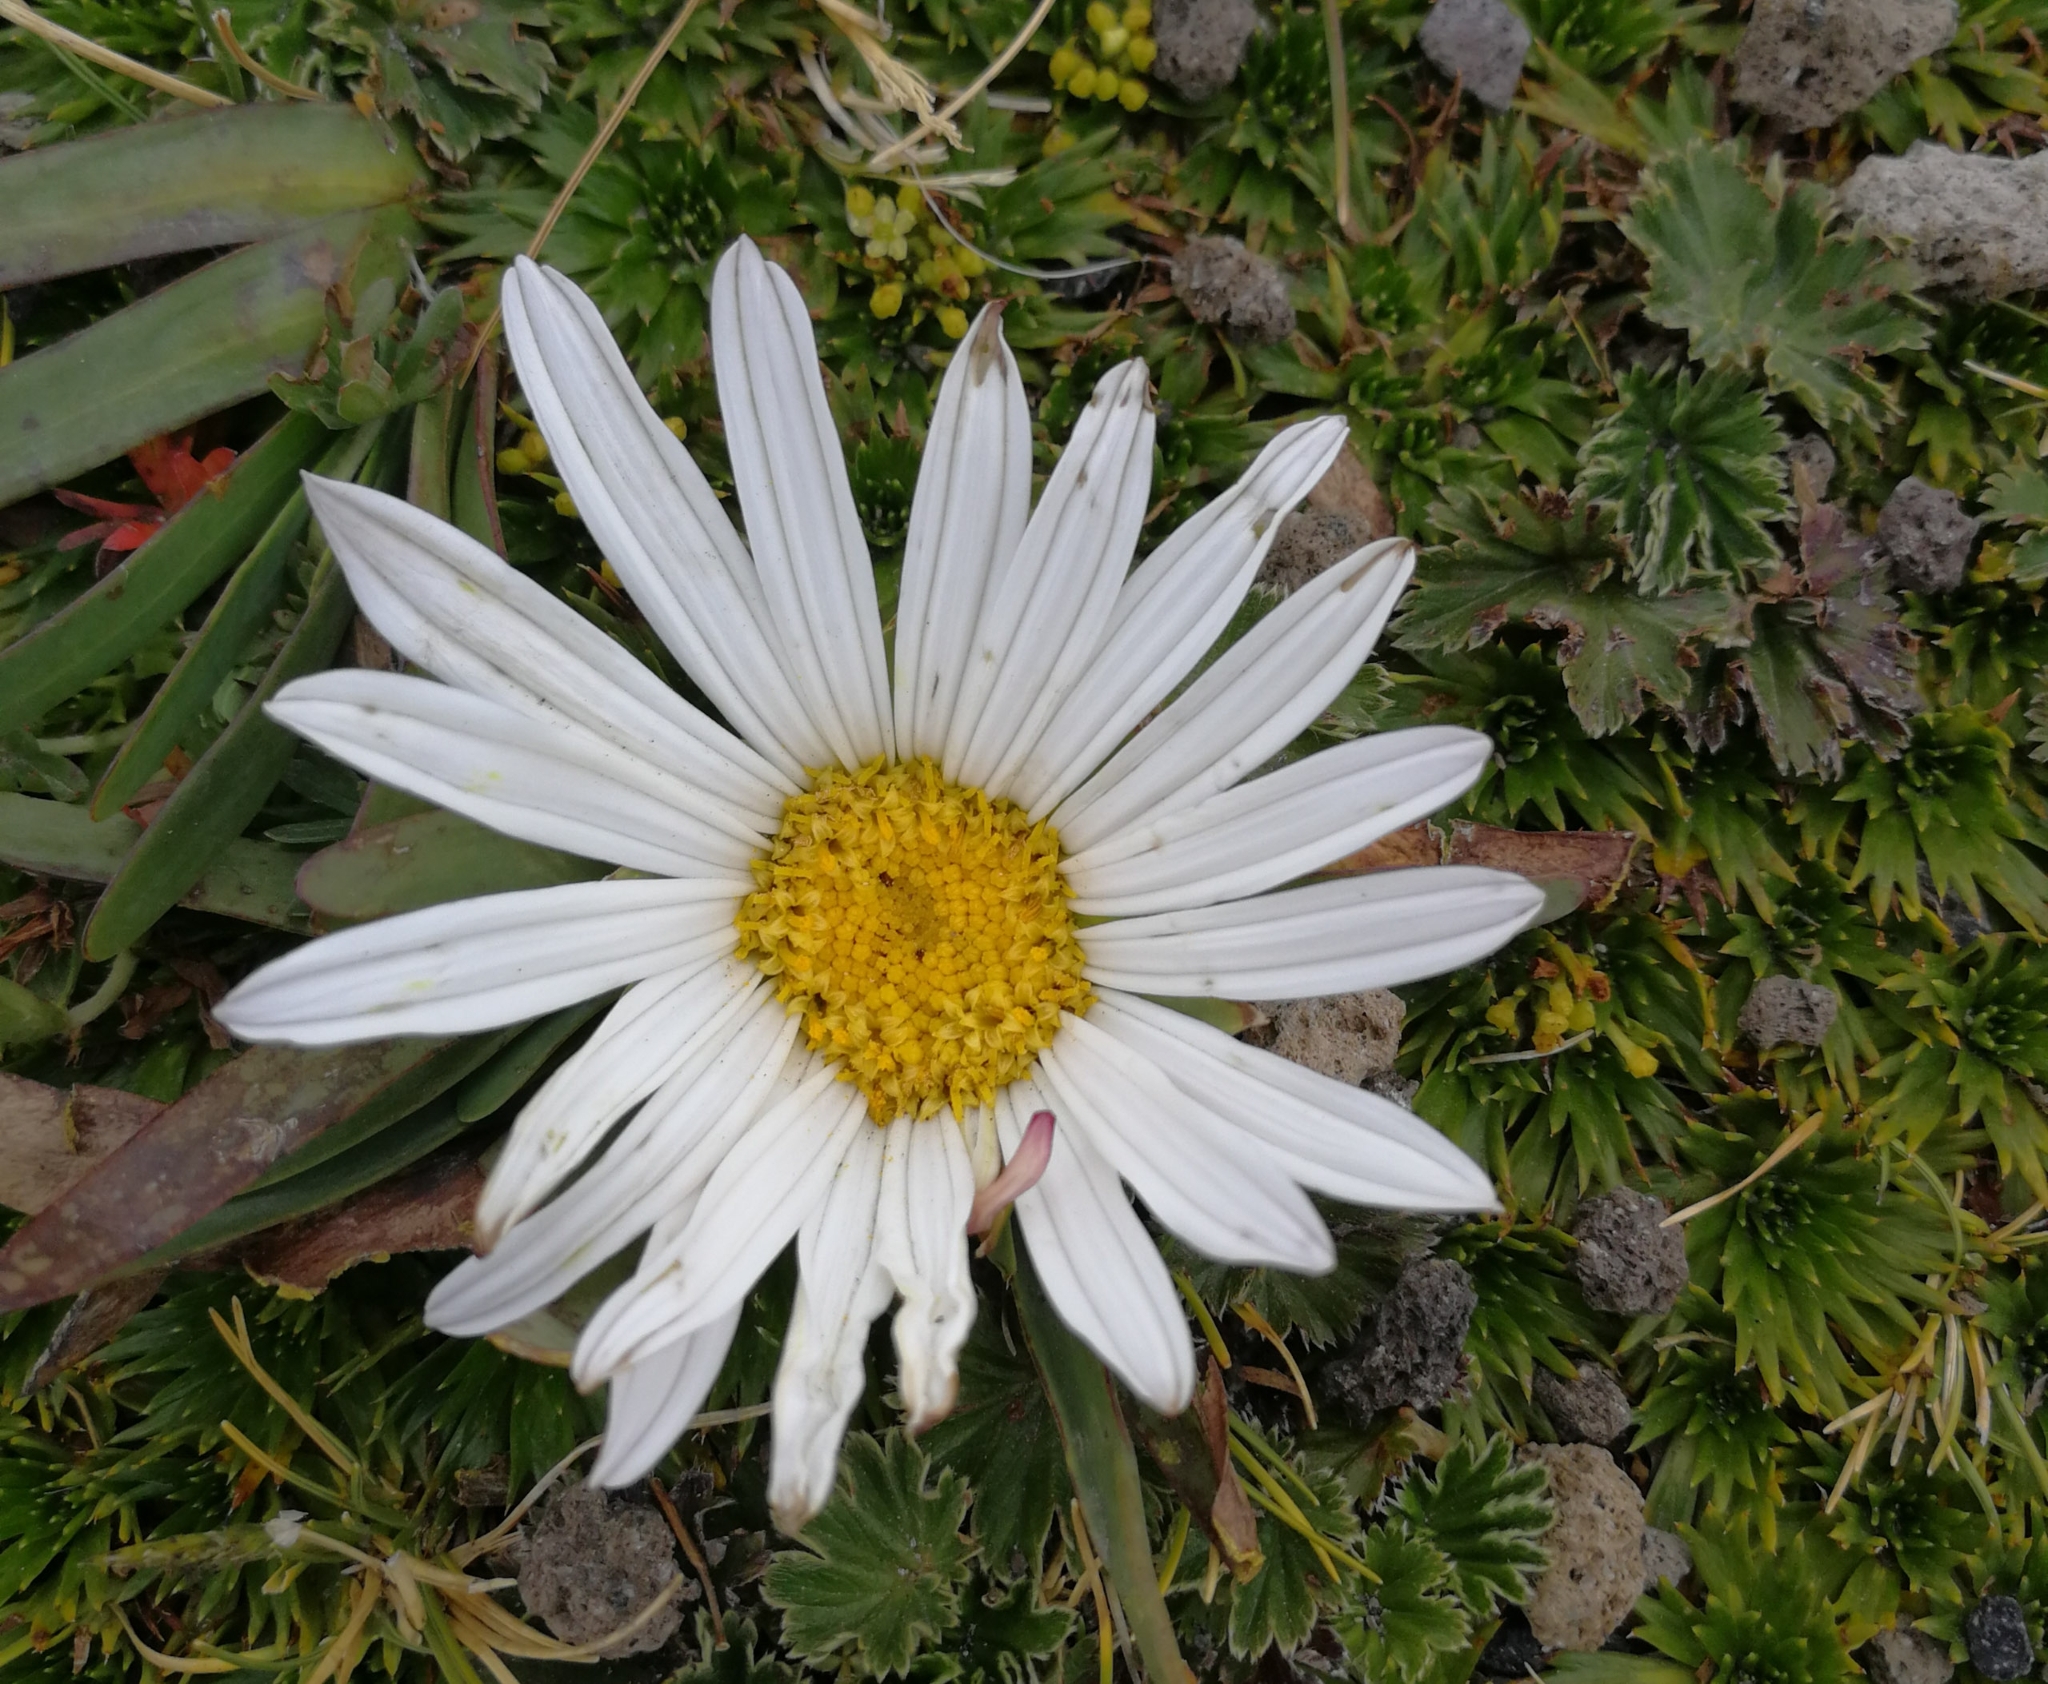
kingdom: Plantae
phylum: Tracheophyta
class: Magnoliopsida
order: Asterales
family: Asteraceae
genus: Rockhausenia
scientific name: Rockhausenia nubigena
